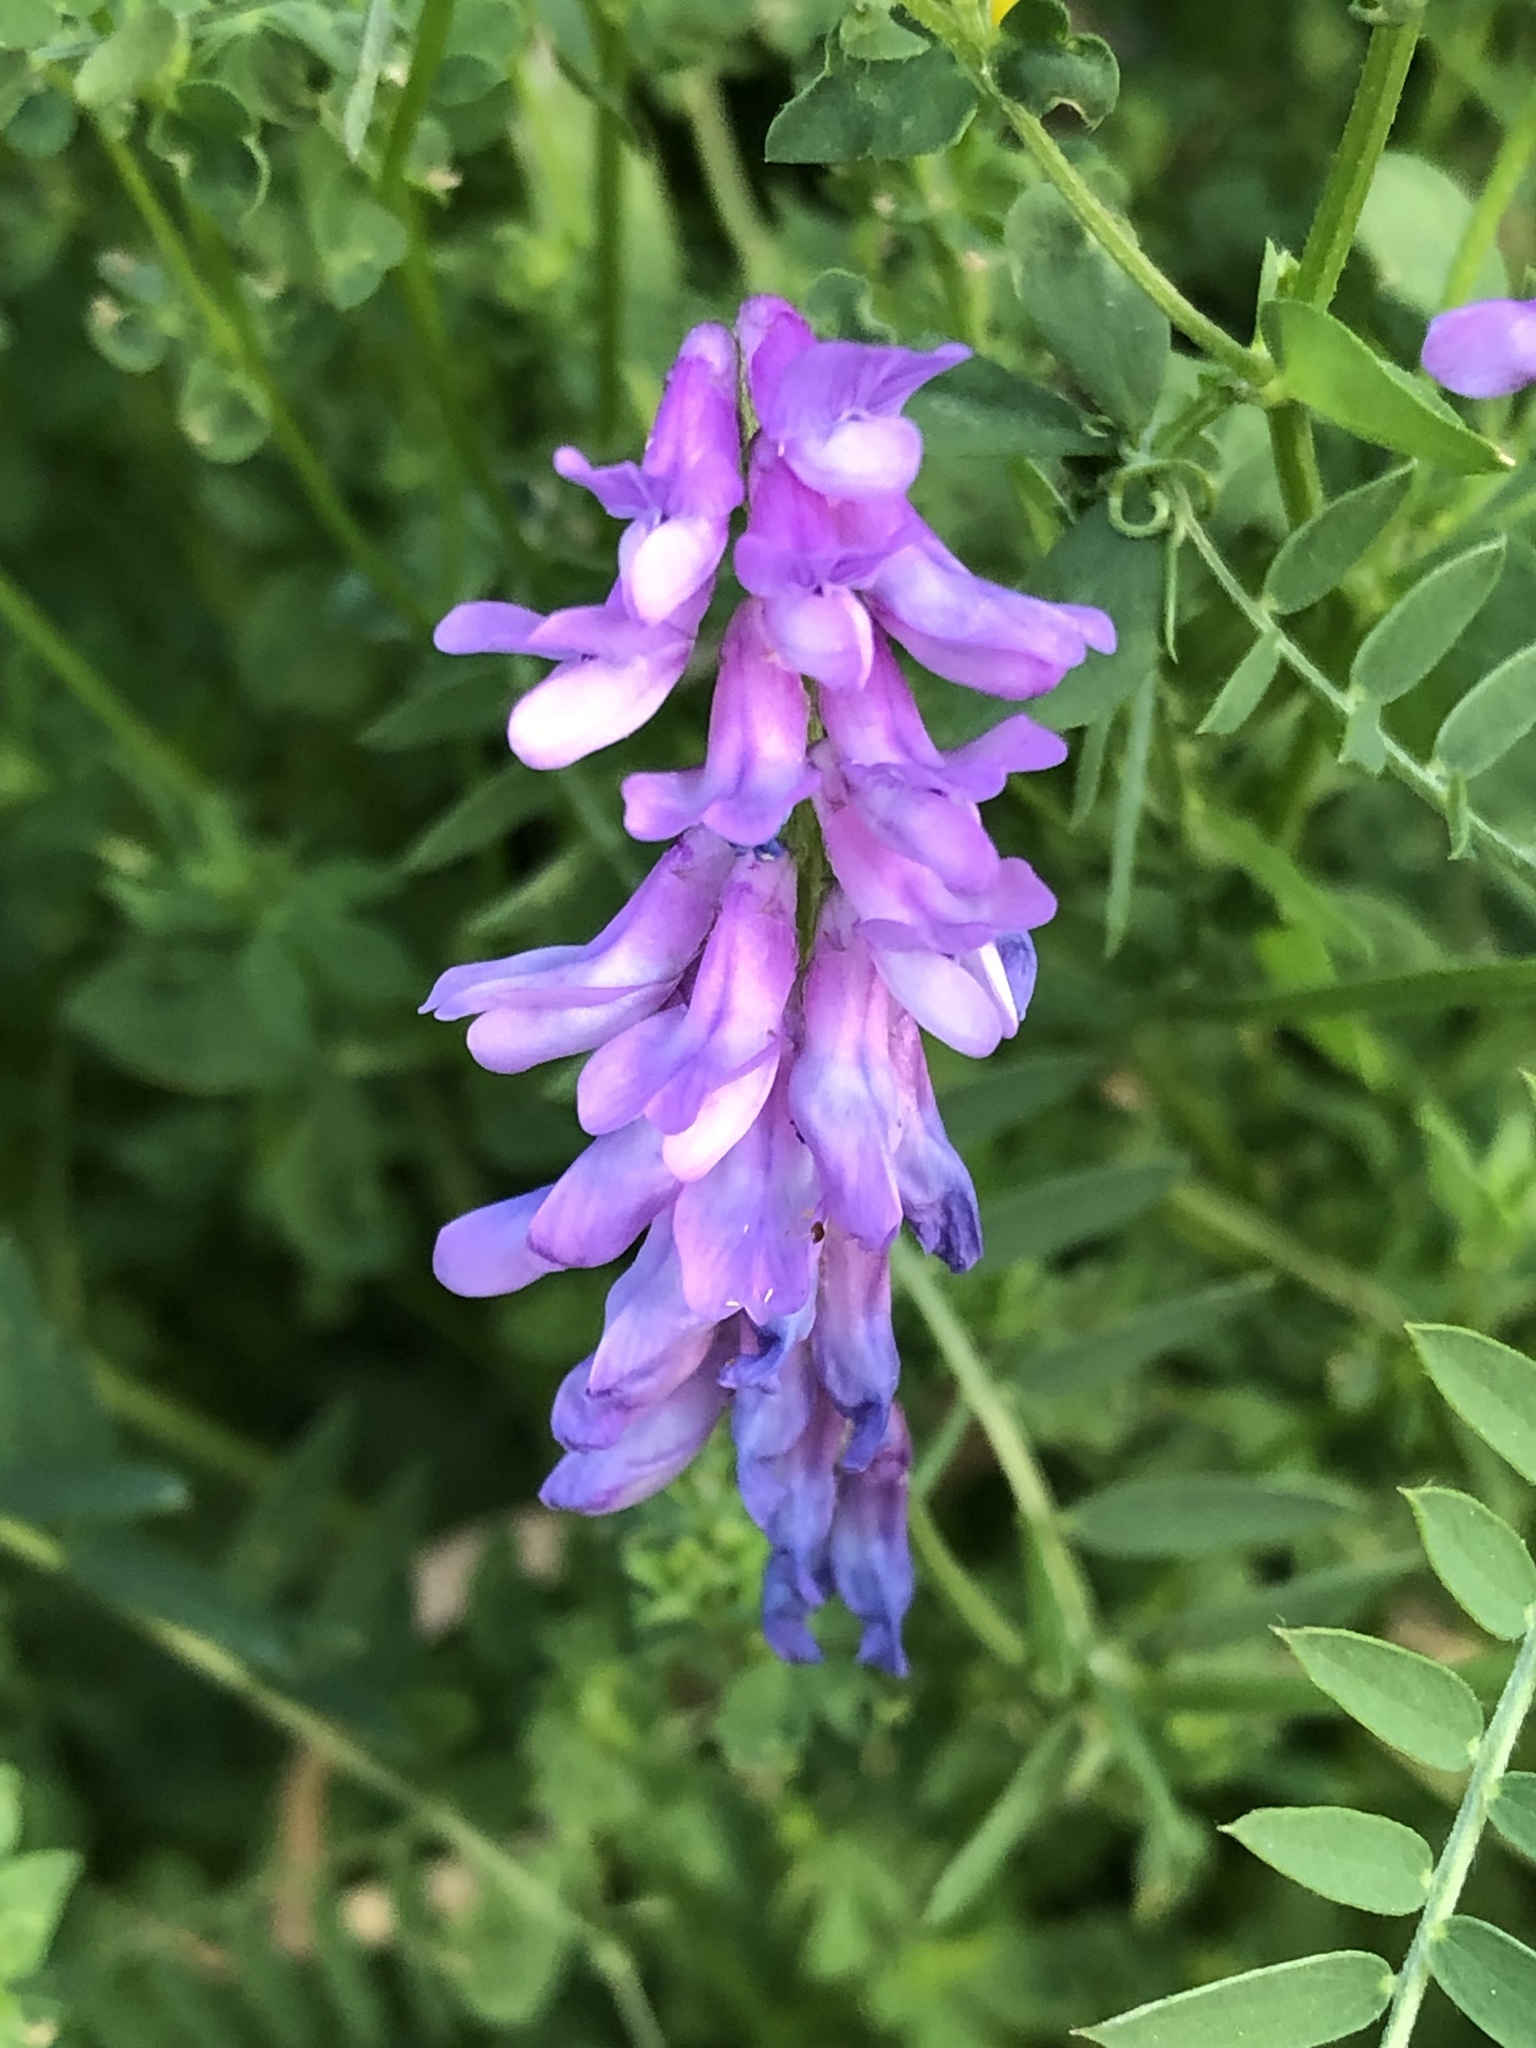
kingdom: Plantae
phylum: Tracheophyta
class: Magnoliopsida
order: Fabales
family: Fabaceae
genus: Vicia
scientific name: Vicia cracca
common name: Bird vetch
